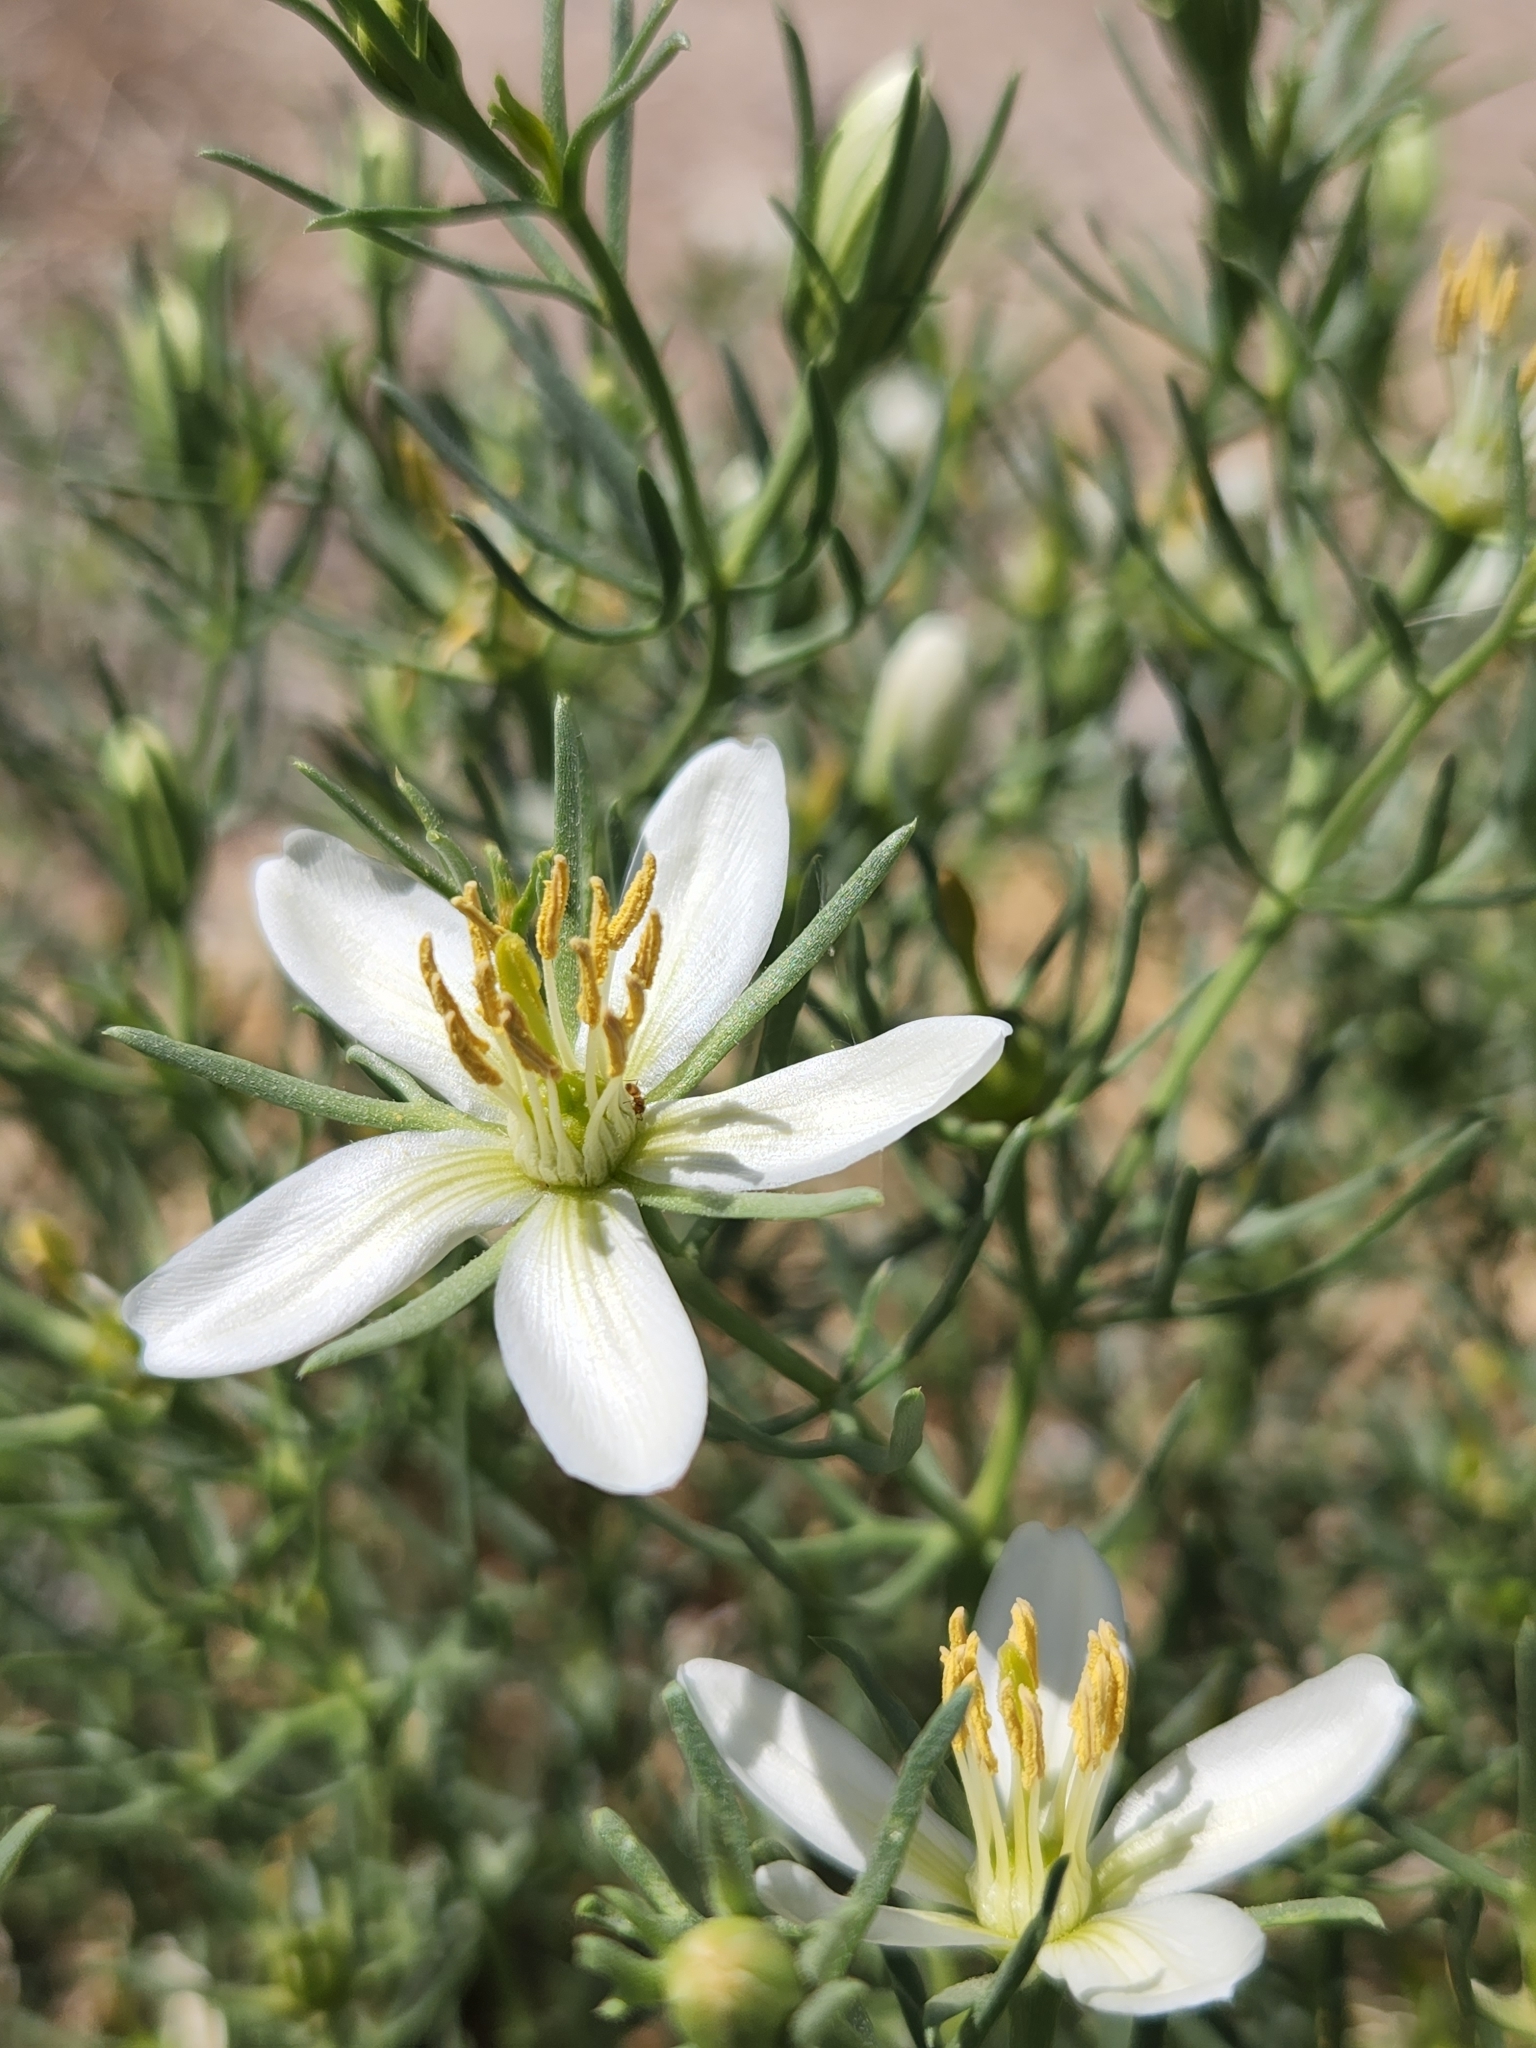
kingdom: Plantae
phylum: Tracheophyta
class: Magnoliopsida
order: Sapindales
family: Tetradiclidaceae
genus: Peganum
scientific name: Peganum harmala
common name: Harmal peganum
